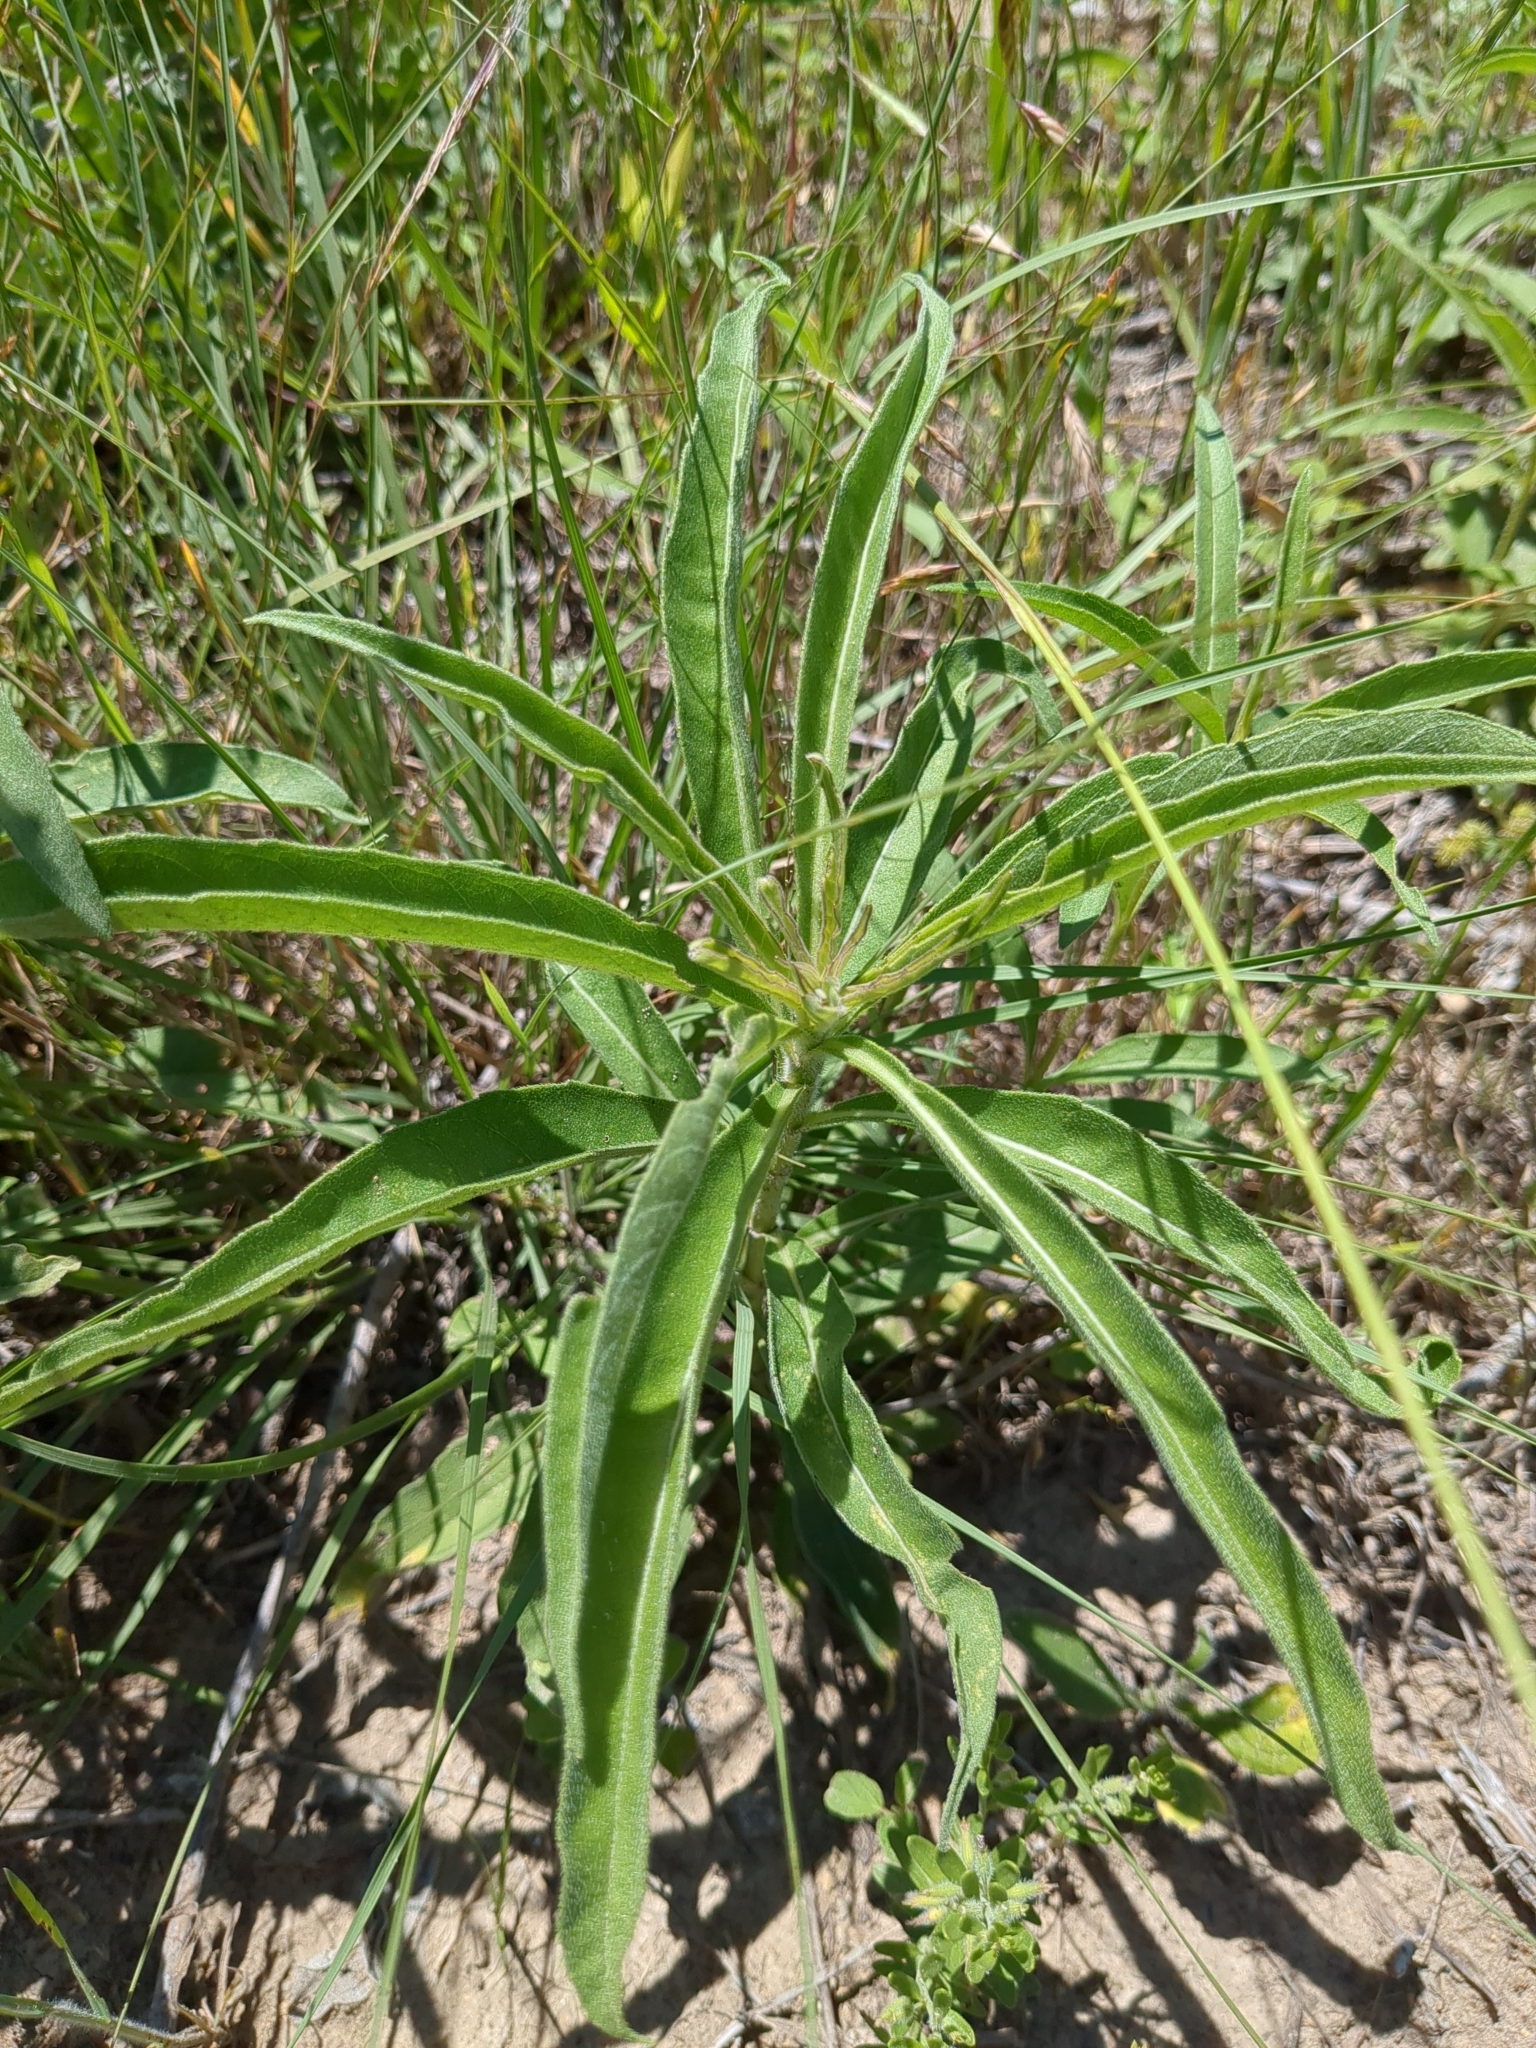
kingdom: Plantae
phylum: Tracheophyta
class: Magnoliopsida
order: Asterales
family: Asteraceae
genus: Helianthus
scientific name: Helianthus maximiliani
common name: Maximilian's sunflower
